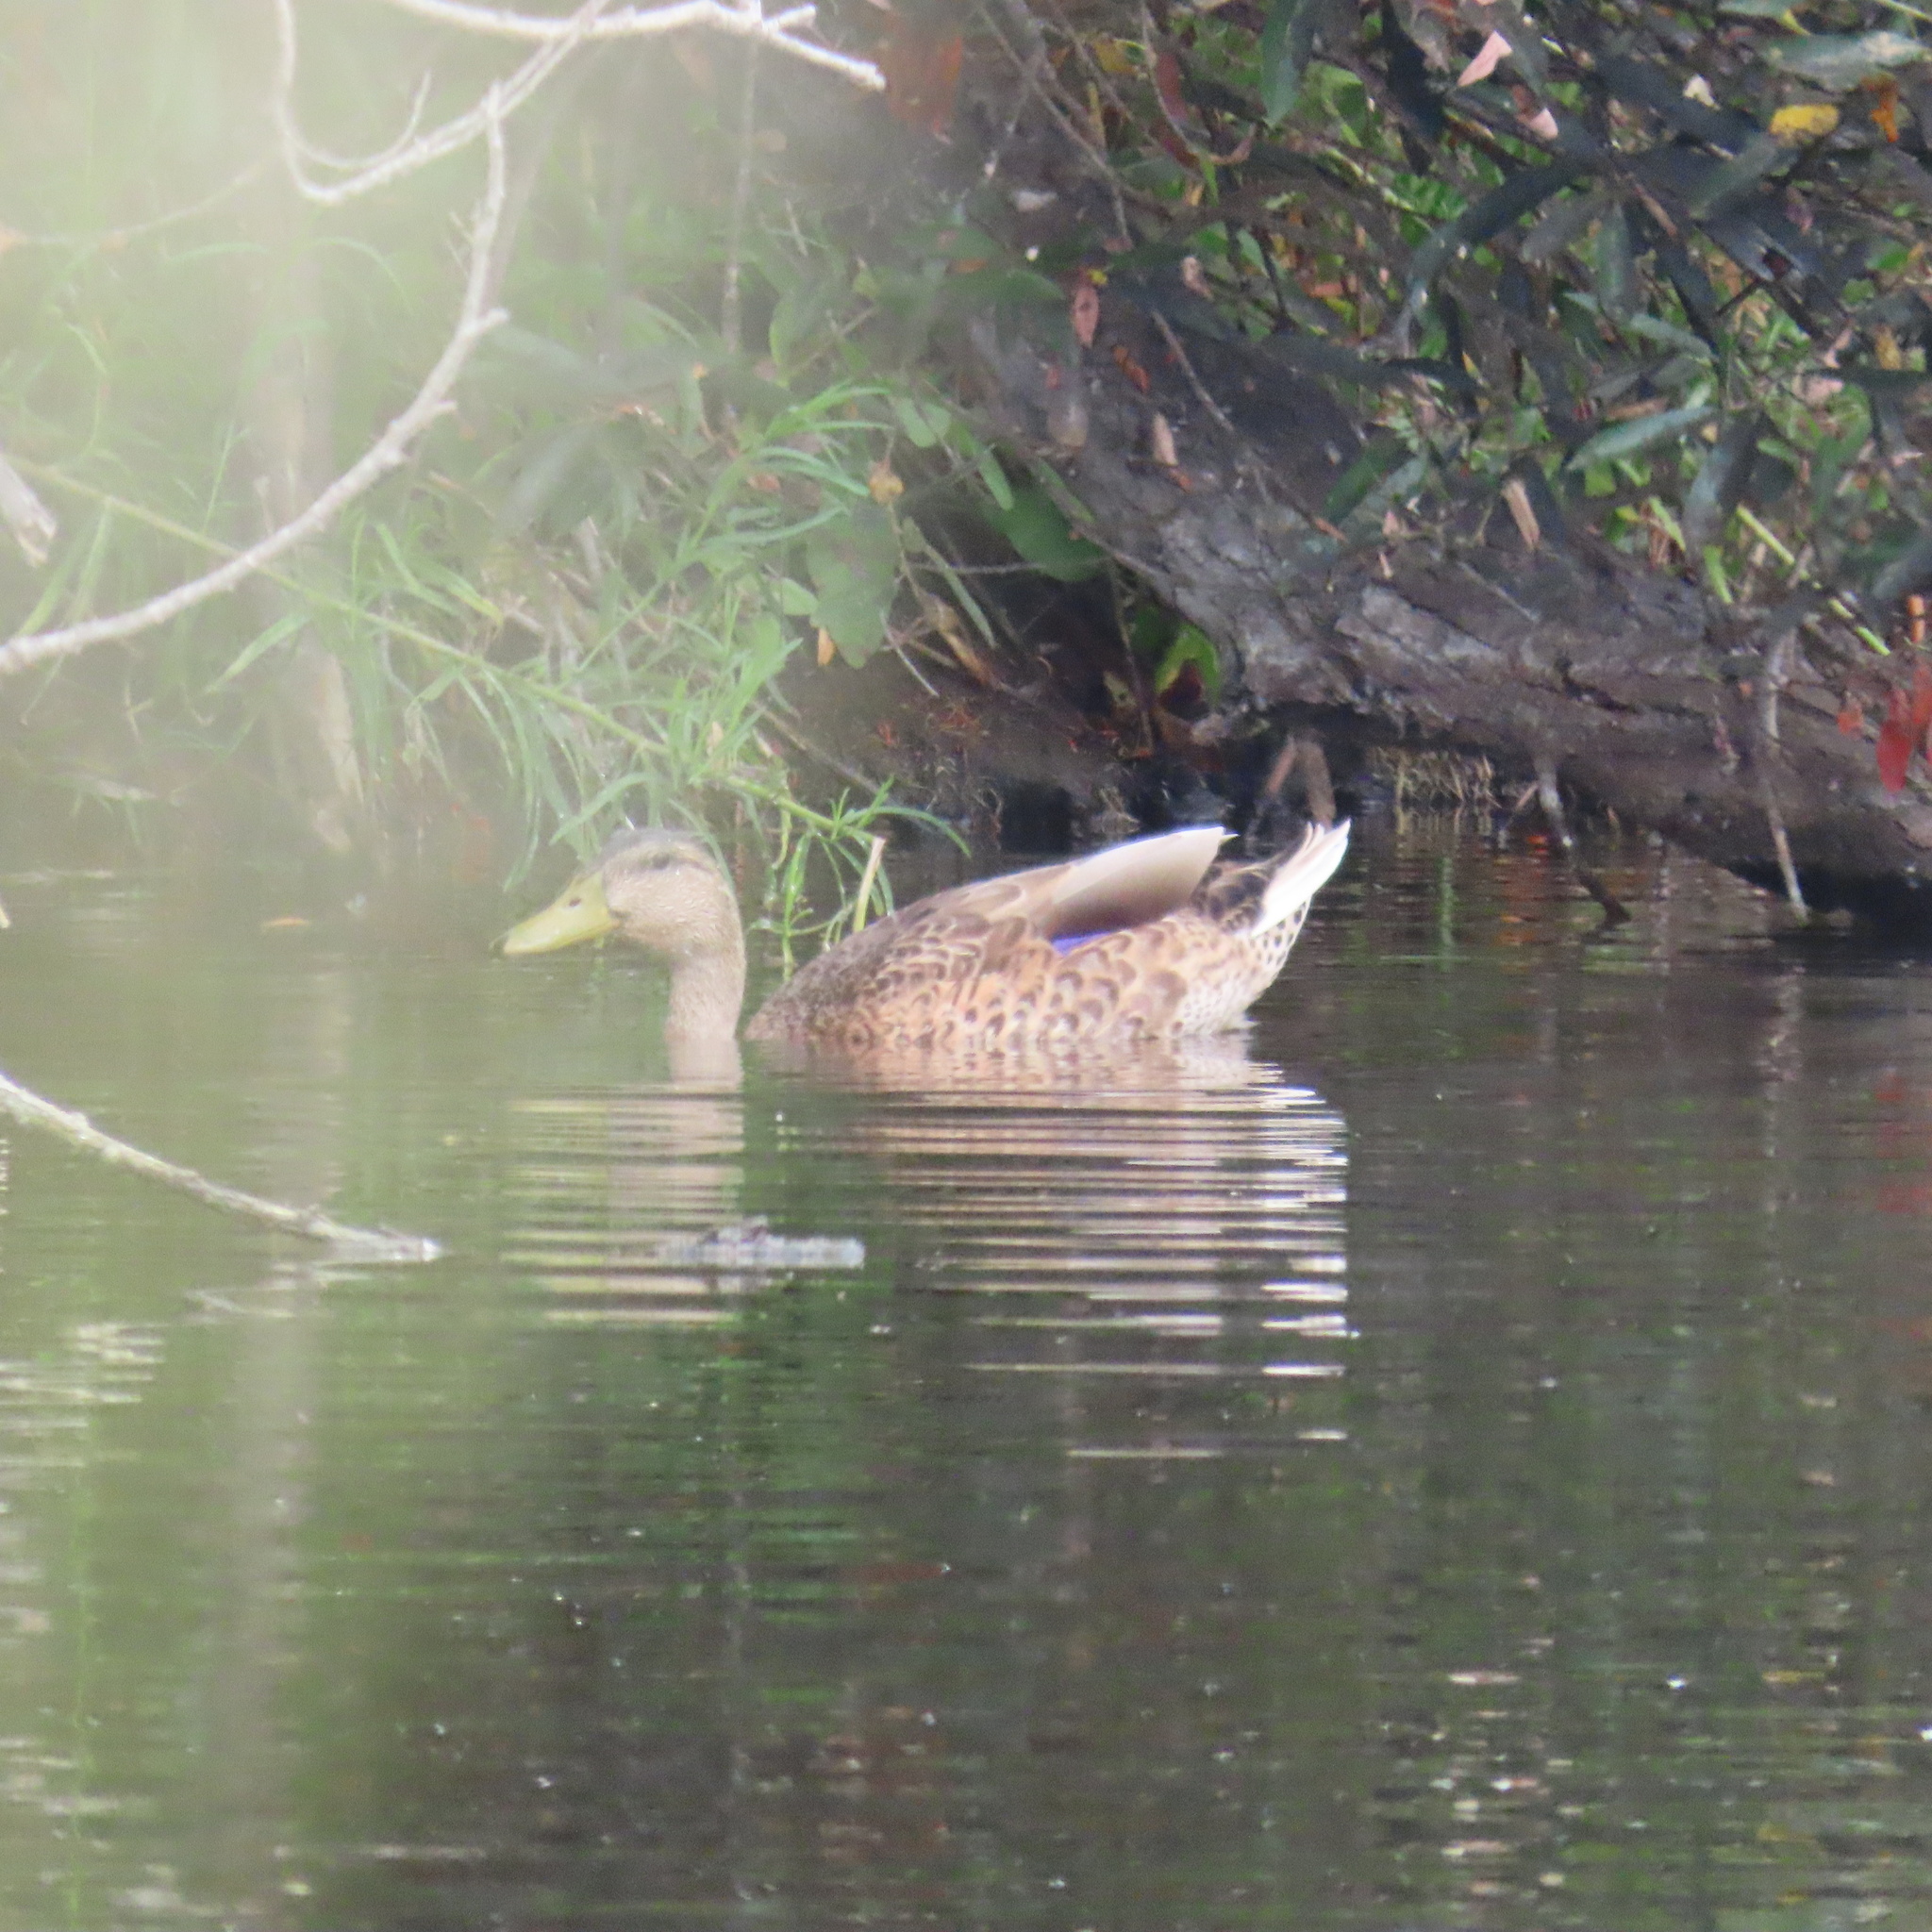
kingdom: Animalia
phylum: Chordata
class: Aves
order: Anseriformes
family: Anatidae
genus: Anas
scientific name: Anas platyrhynchos
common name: Mallard
